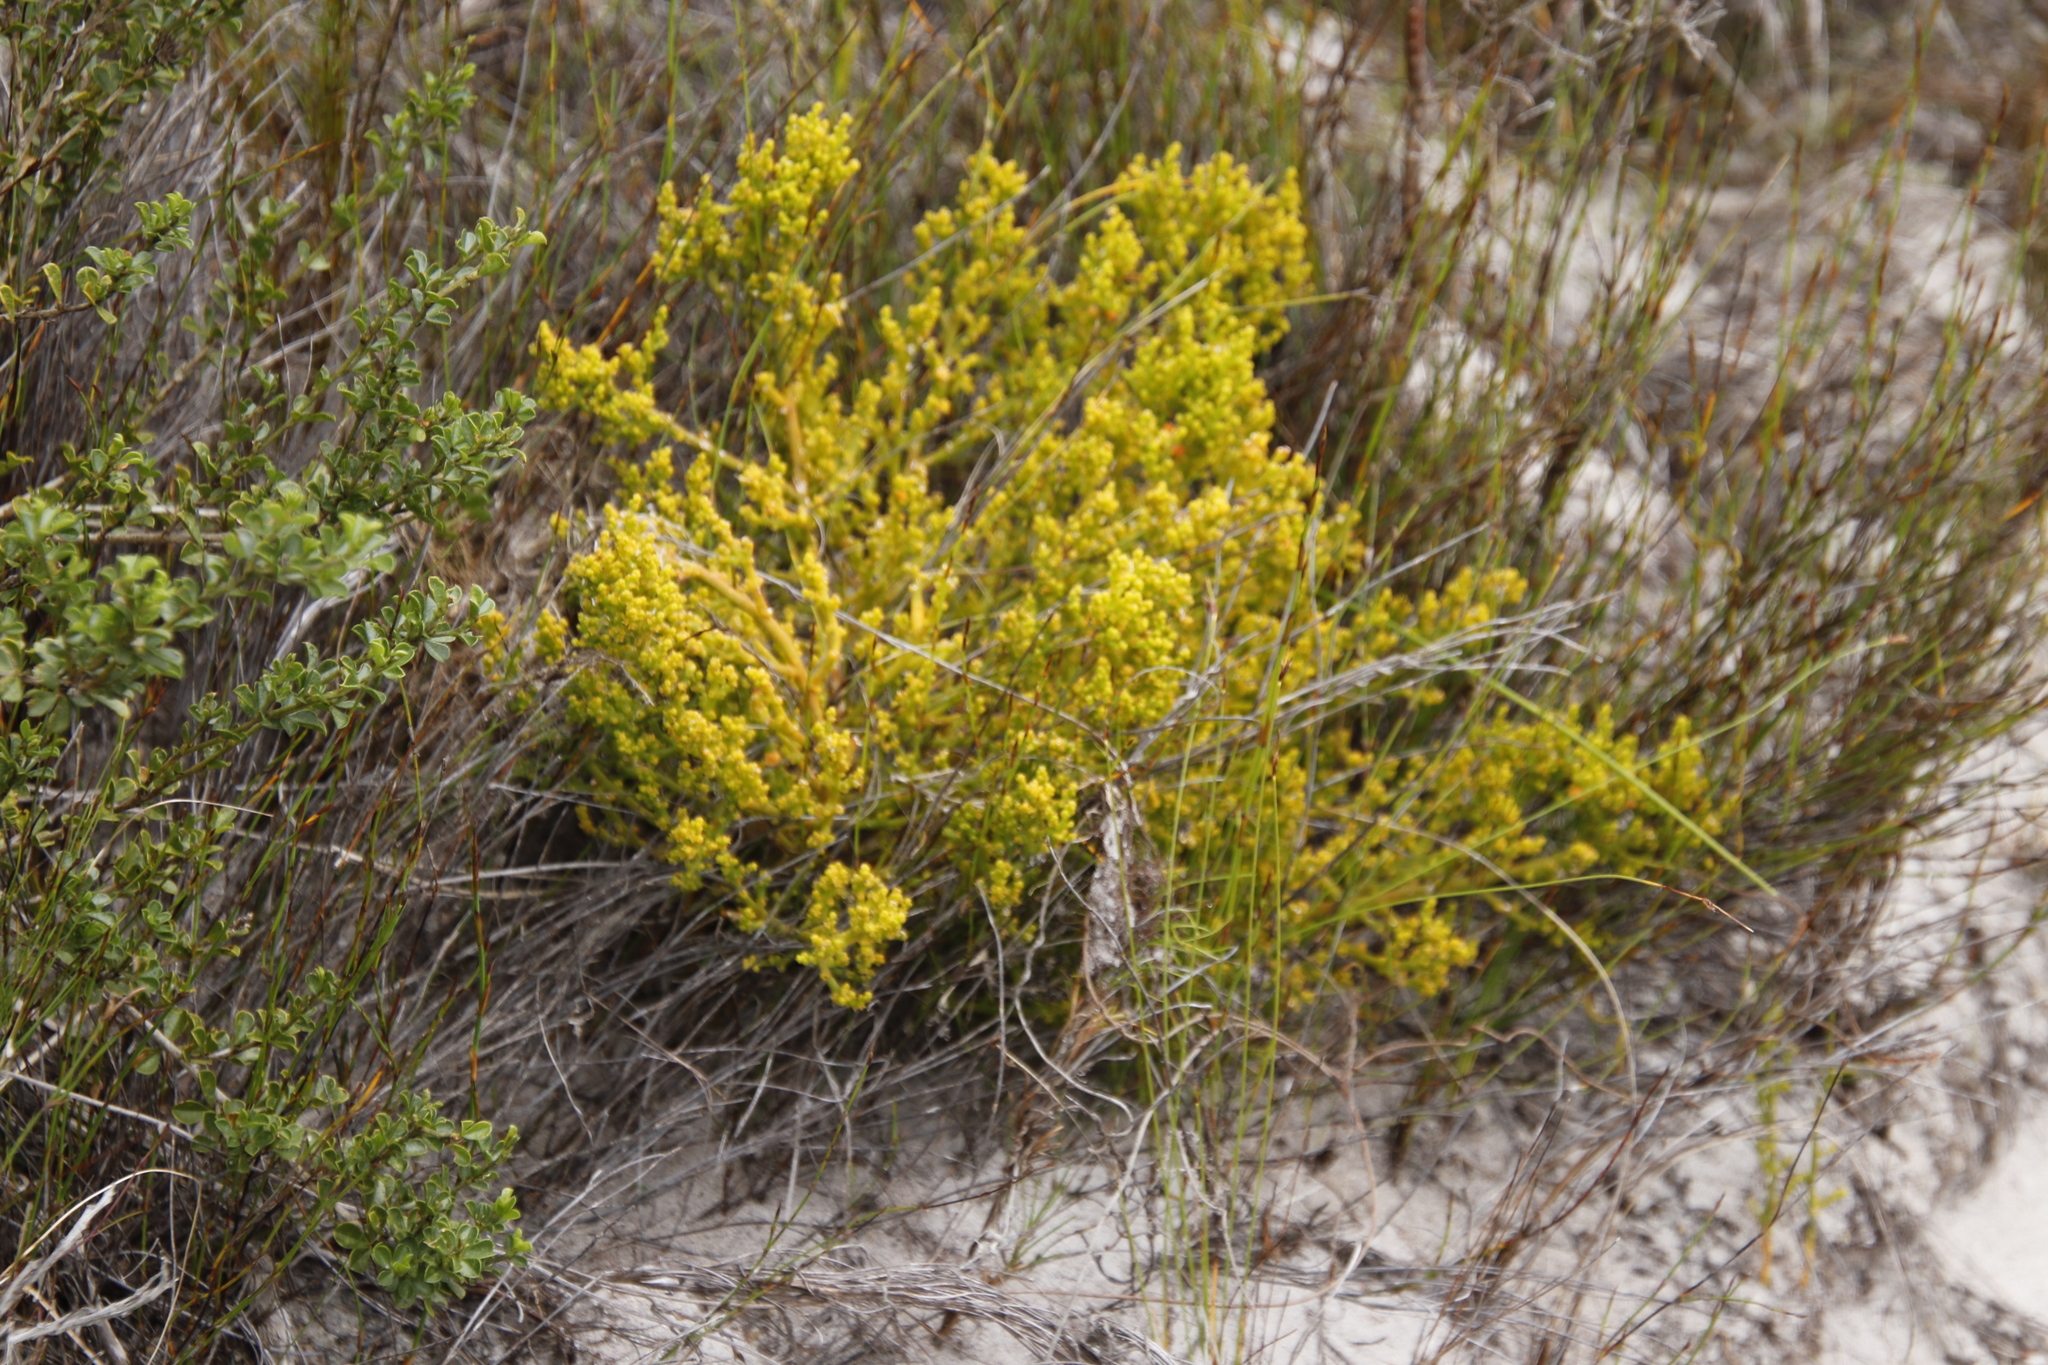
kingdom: Plantae
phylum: Tracheophyta
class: Magnoliopsida
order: Santalales
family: Thesiaceae
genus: Thesium
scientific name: Thesium fragile
